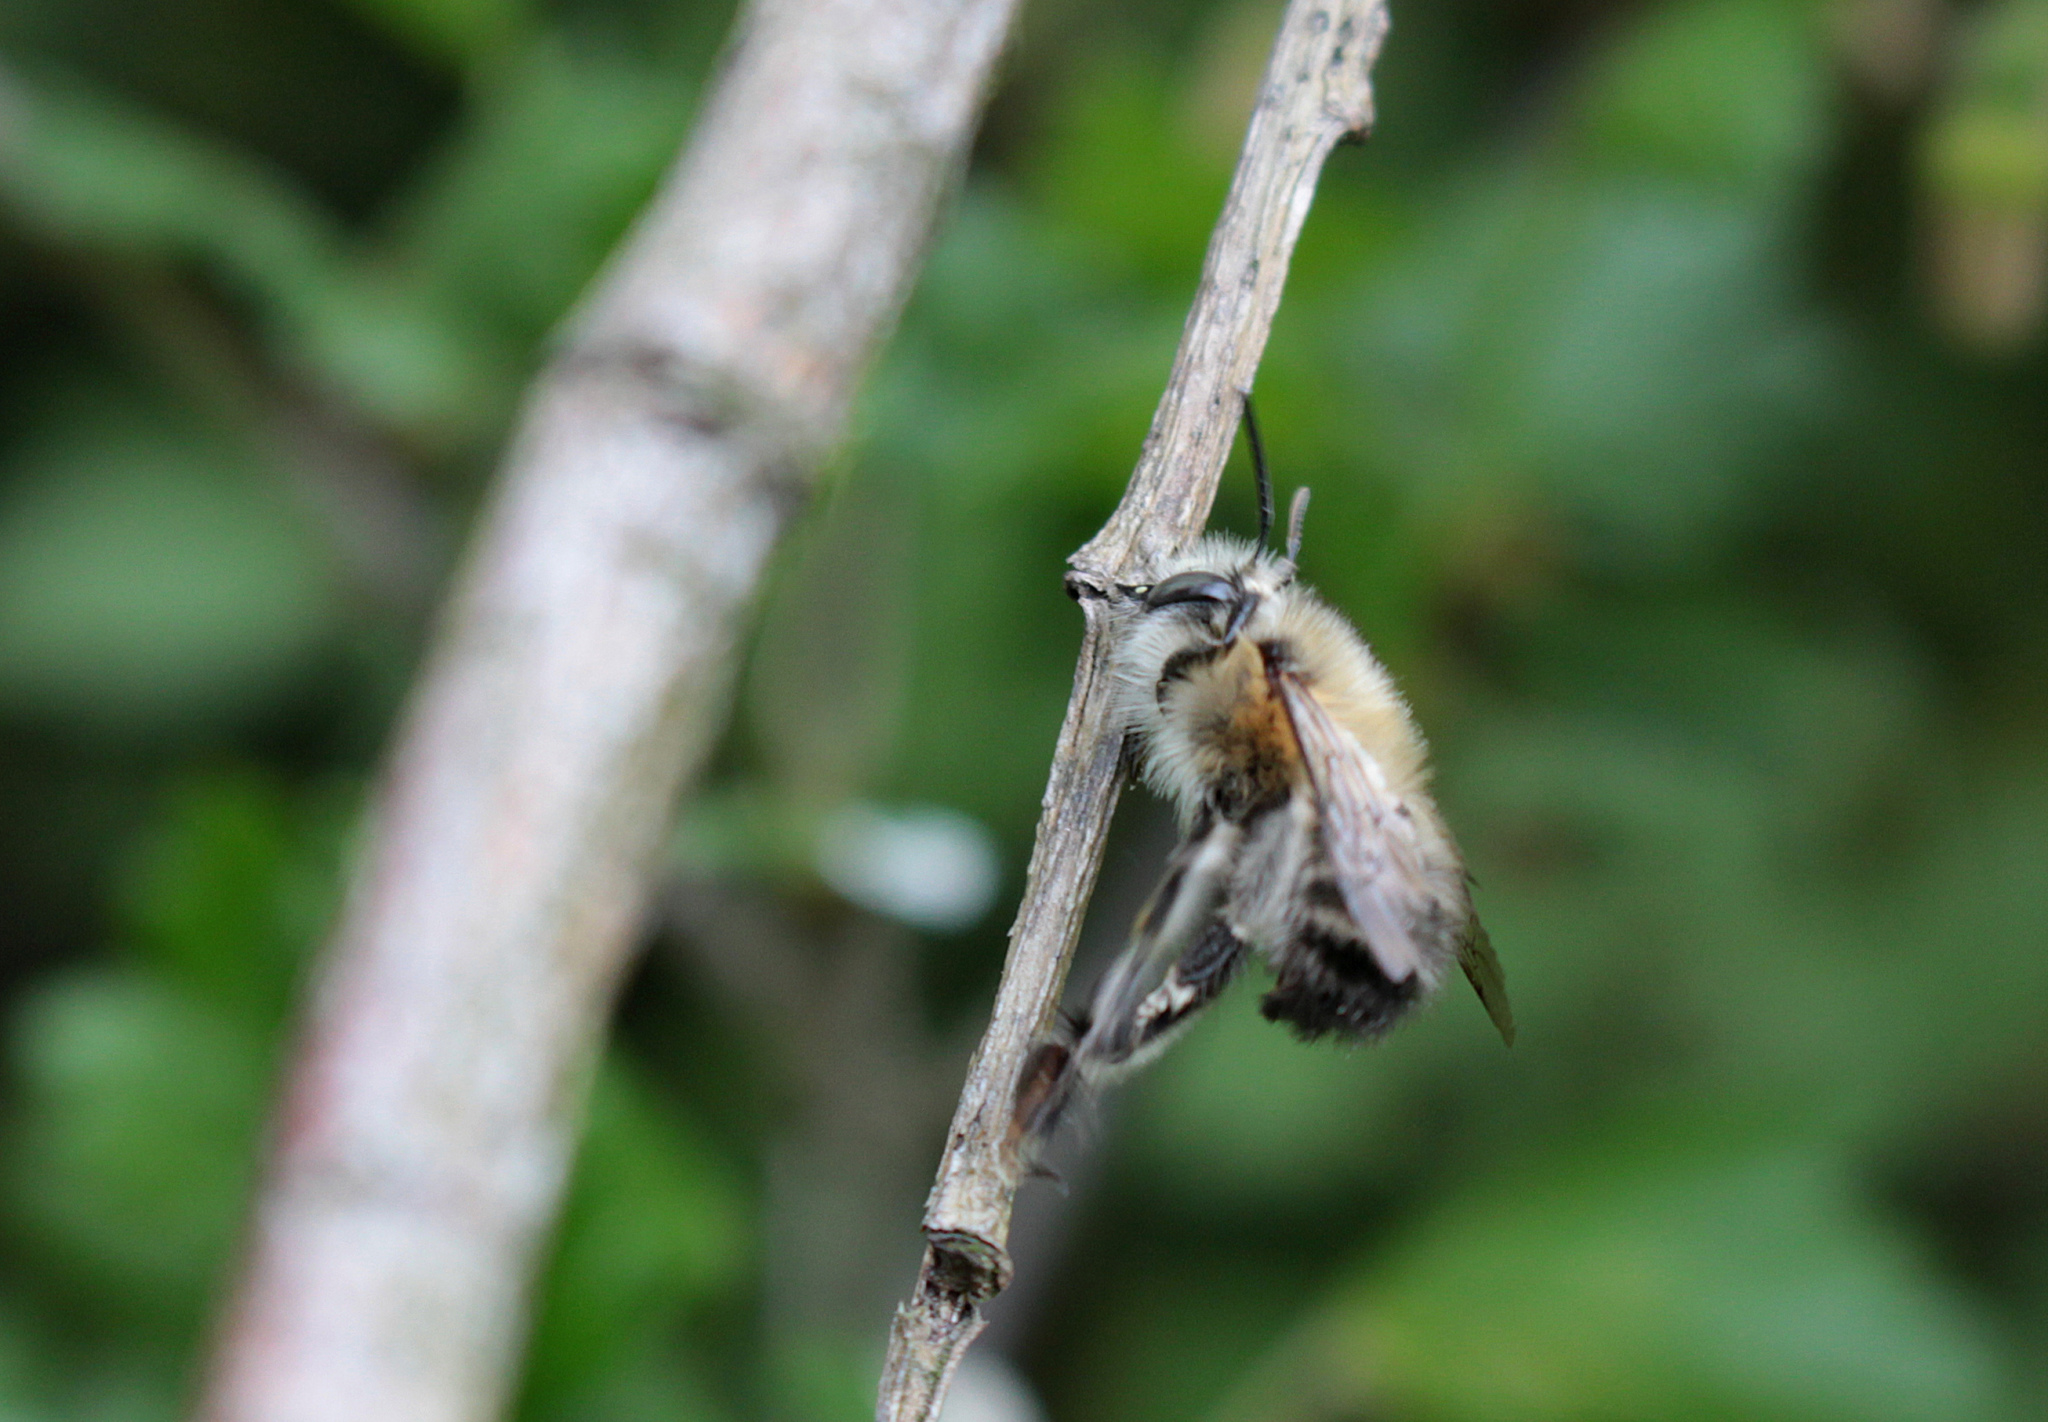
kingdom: Animalia
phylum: Arthropoda
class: Insecta
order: Hymenoptera
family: Apidae
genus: Anthophora
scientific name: Anthophora plumipes
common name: Hairy-footed flower bee
